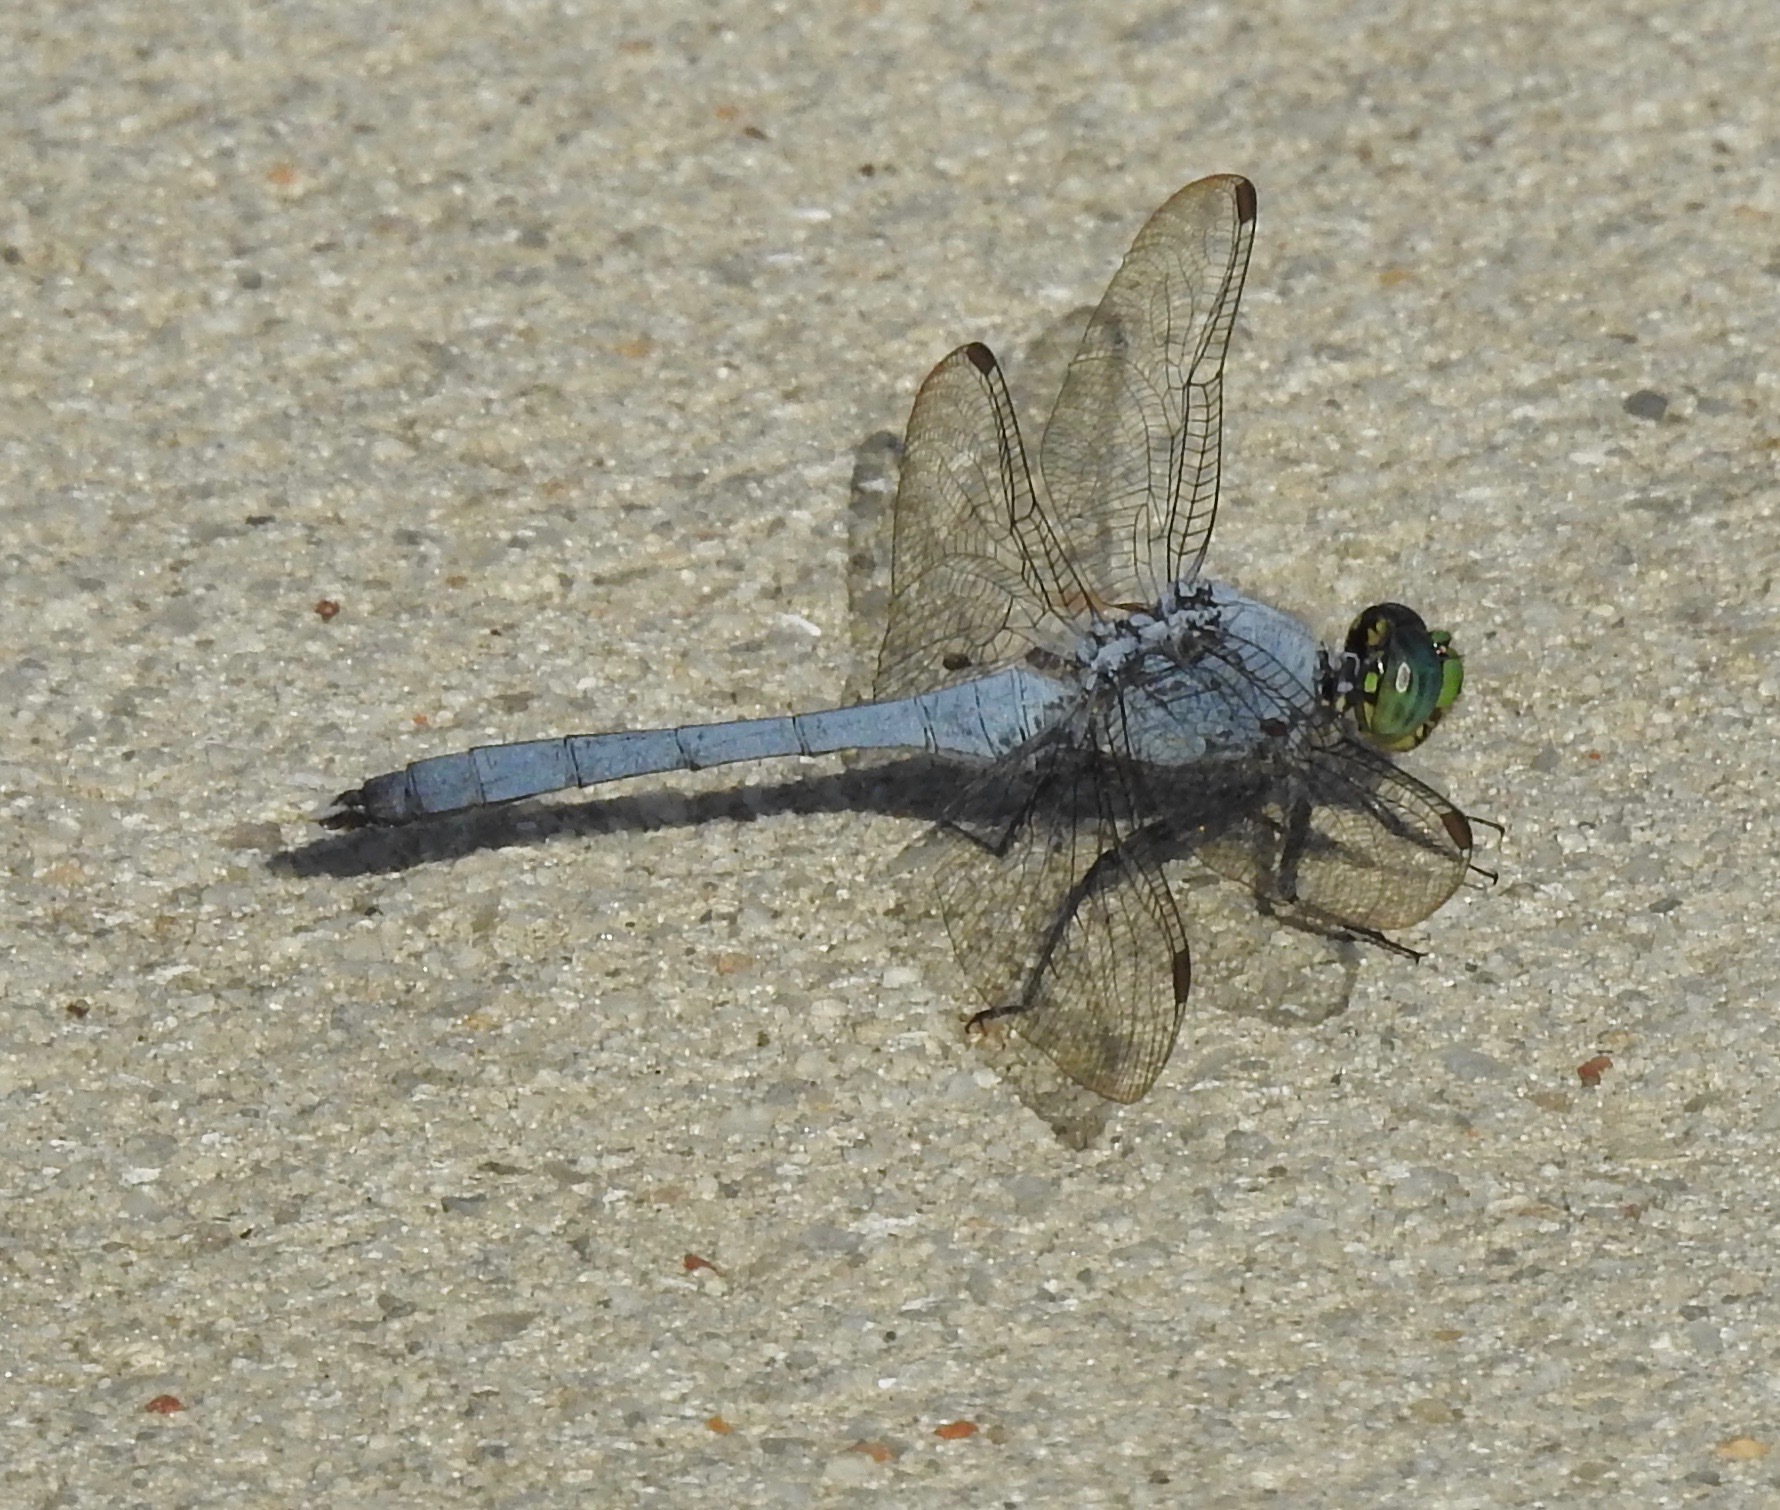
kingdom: Animalia
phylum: Arthropoda
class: Insecta
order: Odonata
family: Libellulidae
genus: Erythemis
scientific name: Erythemis simplicicollis
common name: Eastern pondhawk
